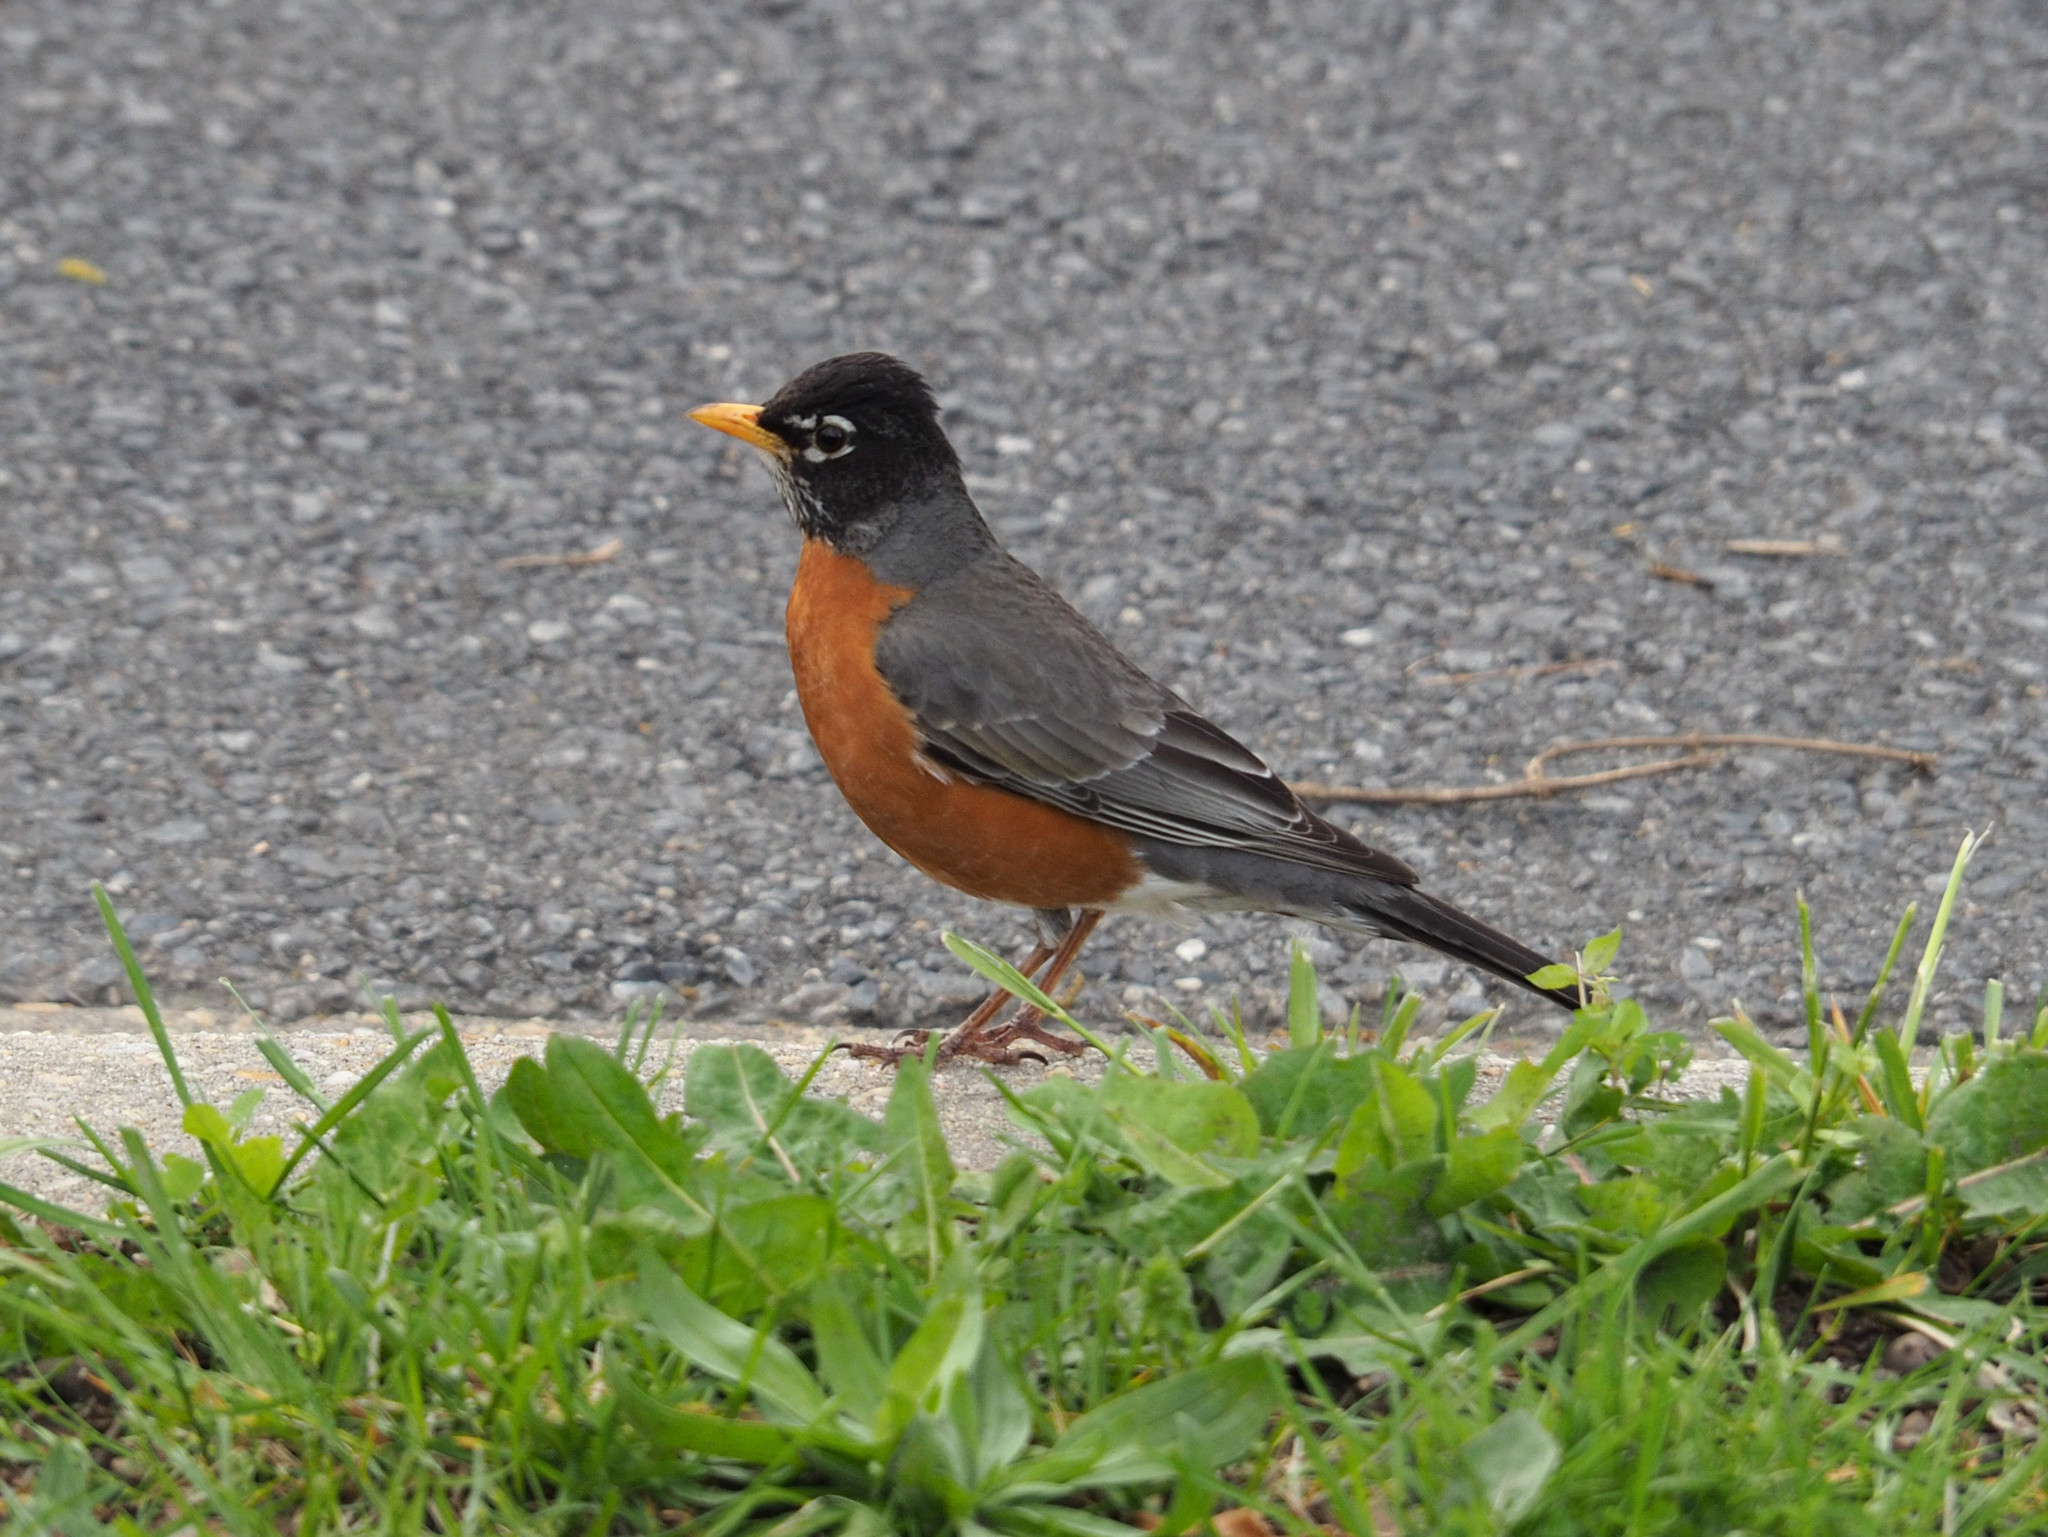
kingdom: Animalia
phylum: Chordata
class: Aves
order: Passeriformes
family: Turdidae
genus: Turdus
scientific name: Turdus migratorius
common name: American robin
